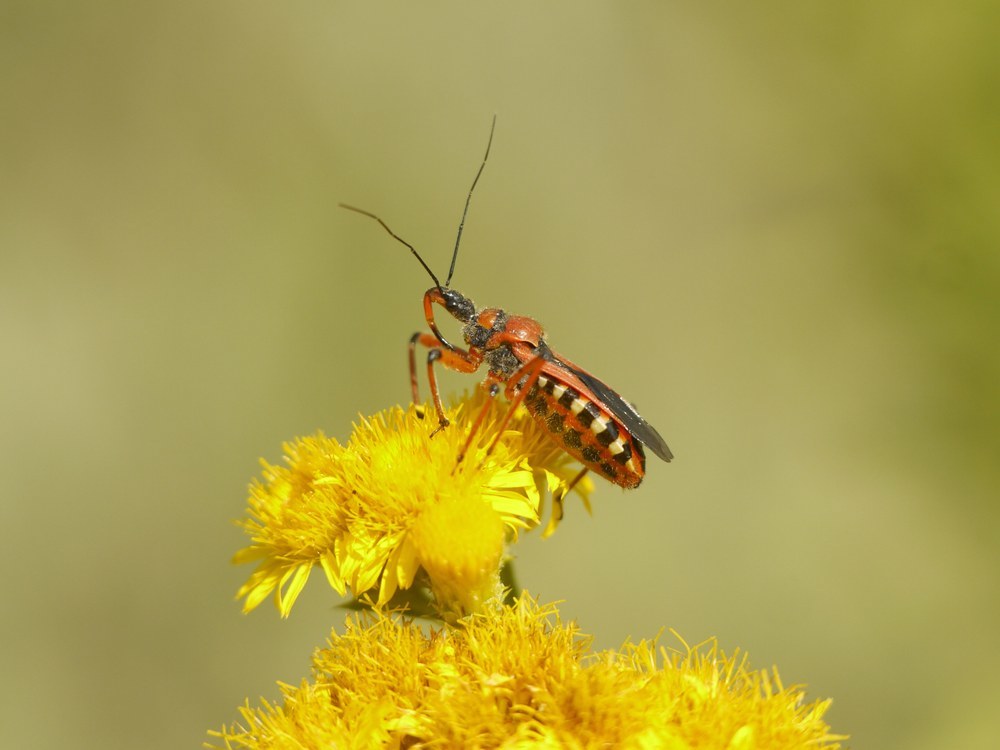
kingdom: Animalia
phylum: Arthropoda
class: Insecta
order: Hemiptera
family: Reduviidae
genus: Rhynocoris
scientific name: Rhynocoris iracundus
